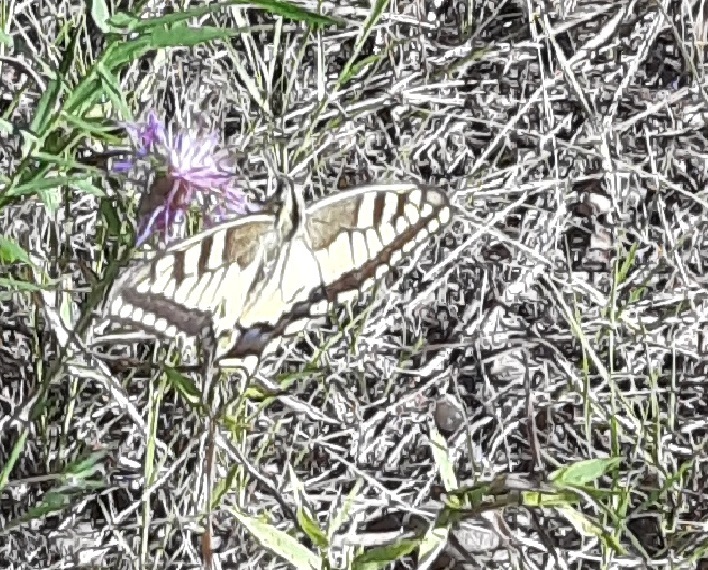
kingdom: Animalia
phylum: Arthropoda
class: Insecta
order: Lepidoptera
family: Papilionidae
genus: Papilio
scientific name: Papilio machaon
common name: Swallowtail
